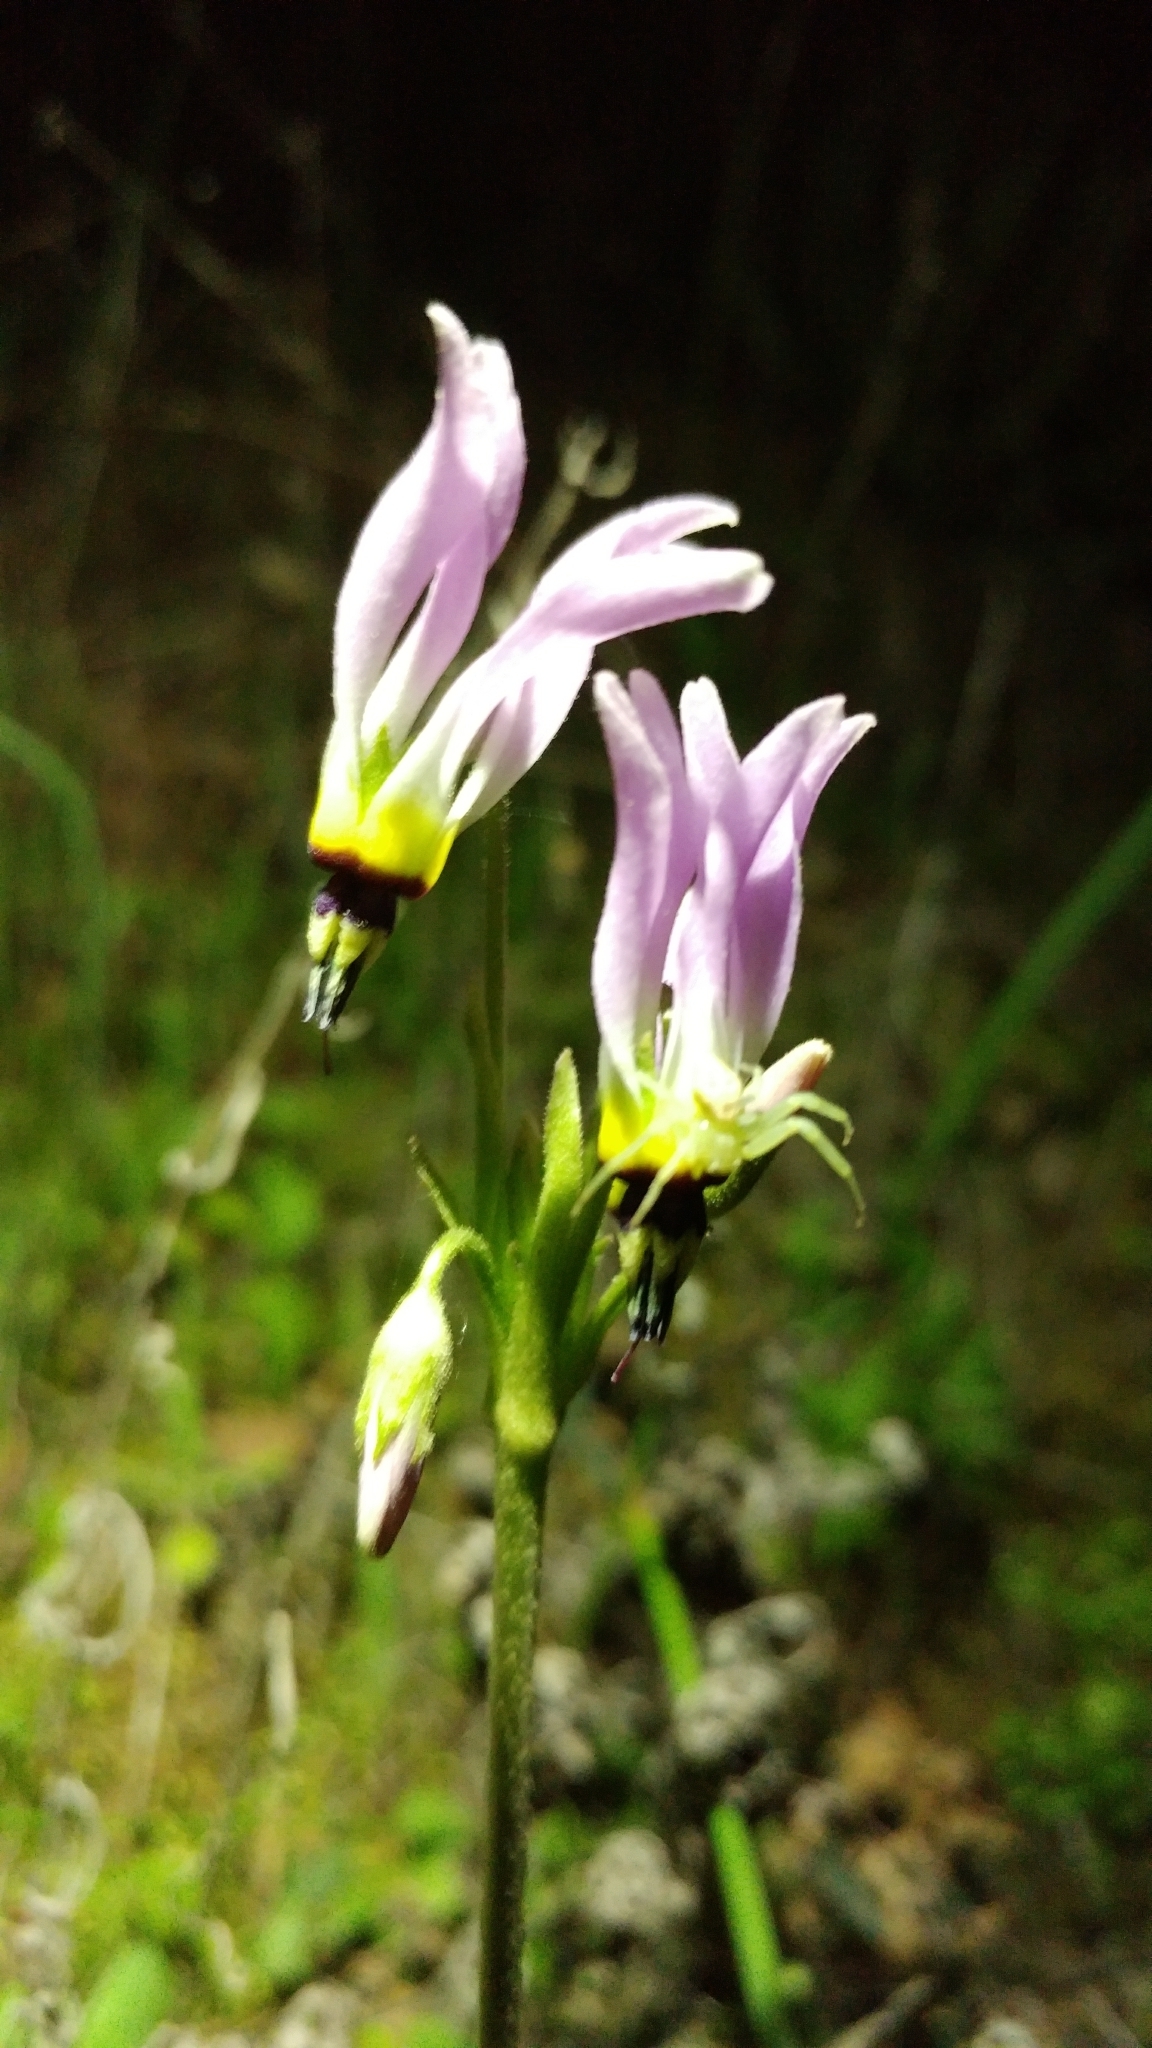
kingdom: Plantae
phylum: Tracheophyta
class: Magnoliopsida
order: Ericales
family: Primulaceae
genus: Dodecatheon
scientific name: Dodecatheon clevelandii
